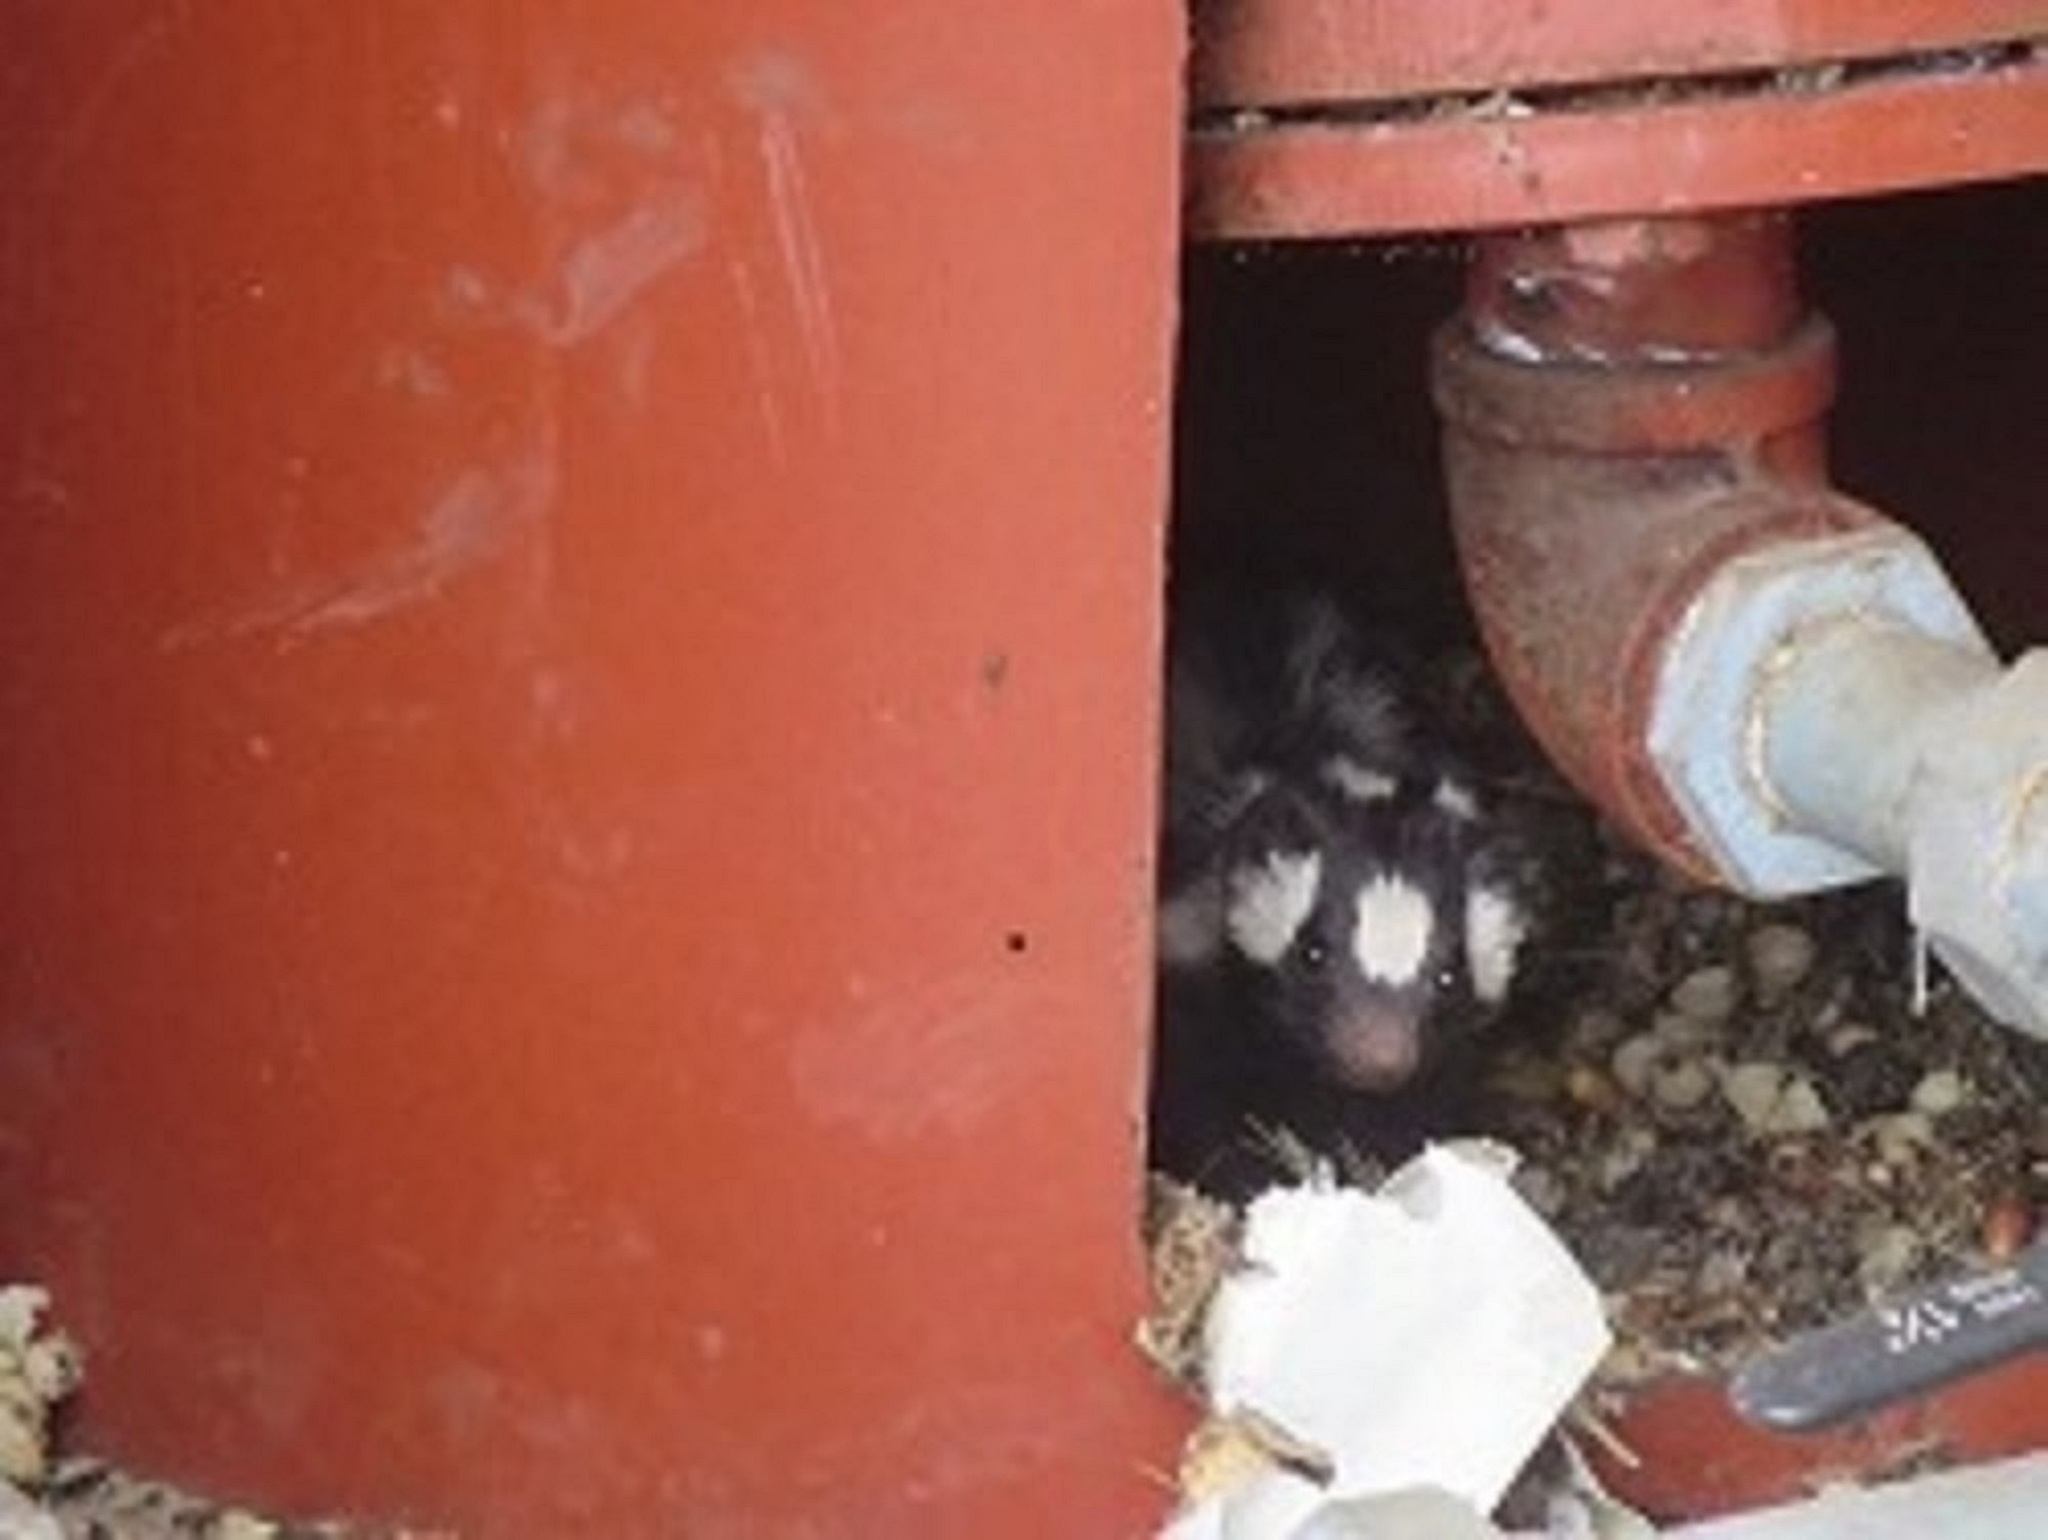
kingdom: Animalia
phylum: Chordata
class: Mammalia
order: Carnivora
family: Mephitidae
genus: Spilogale
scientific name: Spilogale gracilis
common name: Western spotted skunk
